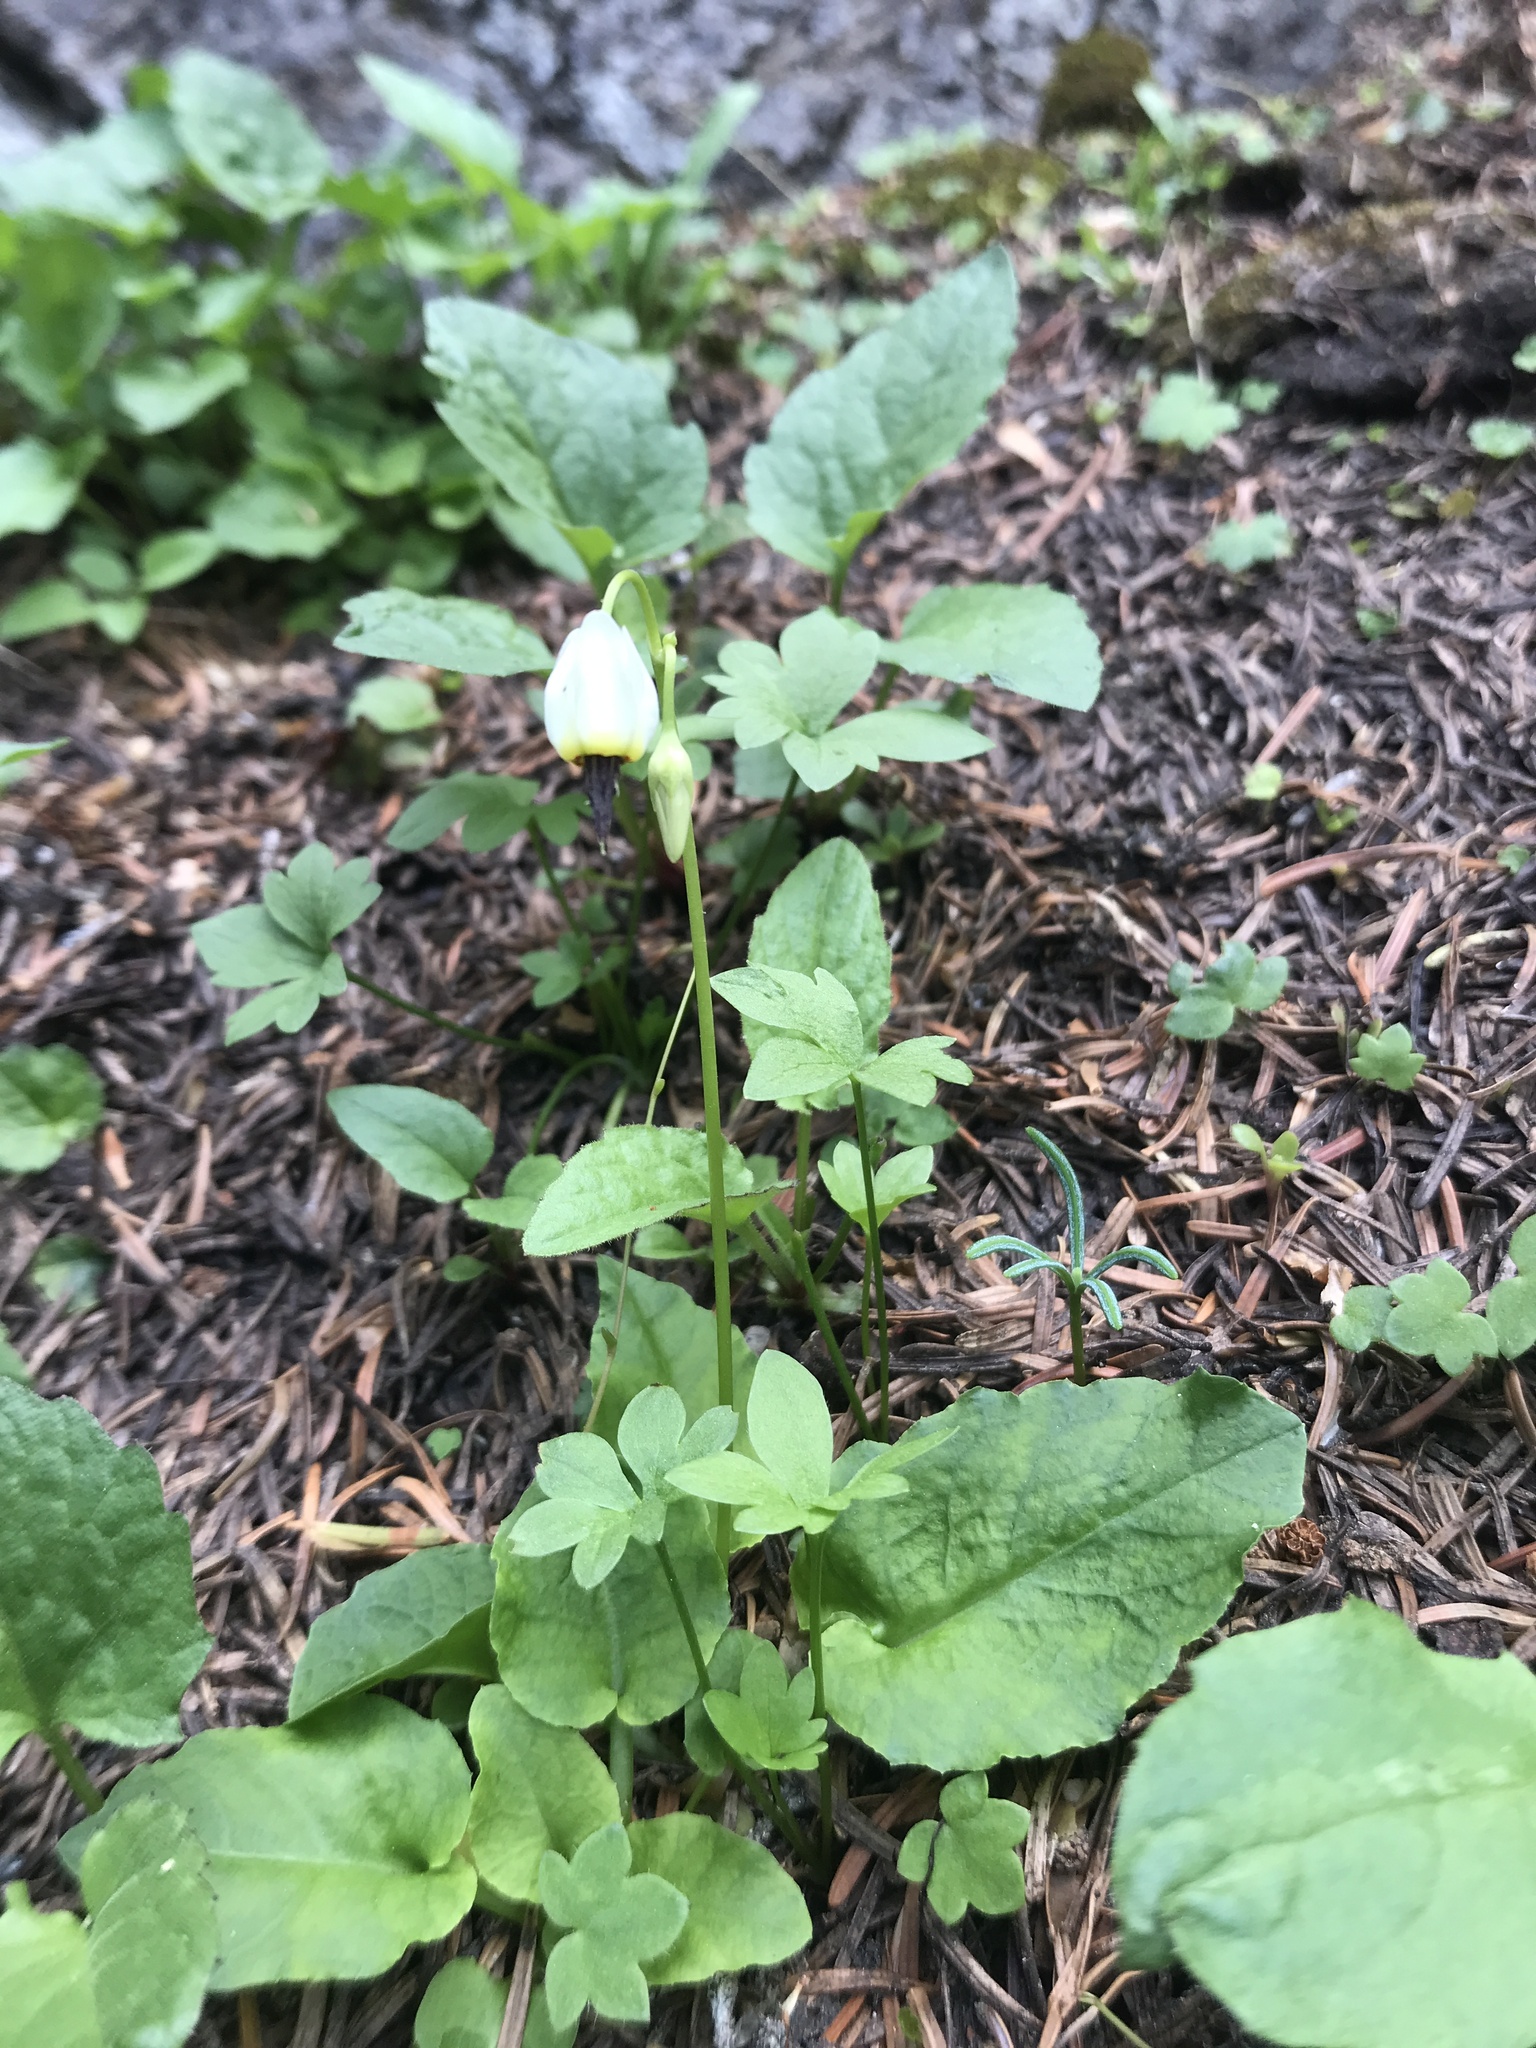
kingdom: Plantae
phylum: Tracheophyta
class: Magnoliopsida
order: Ericales
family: Primulaceae
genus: Dodecatheon
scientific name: Dodecatheon dentatum
